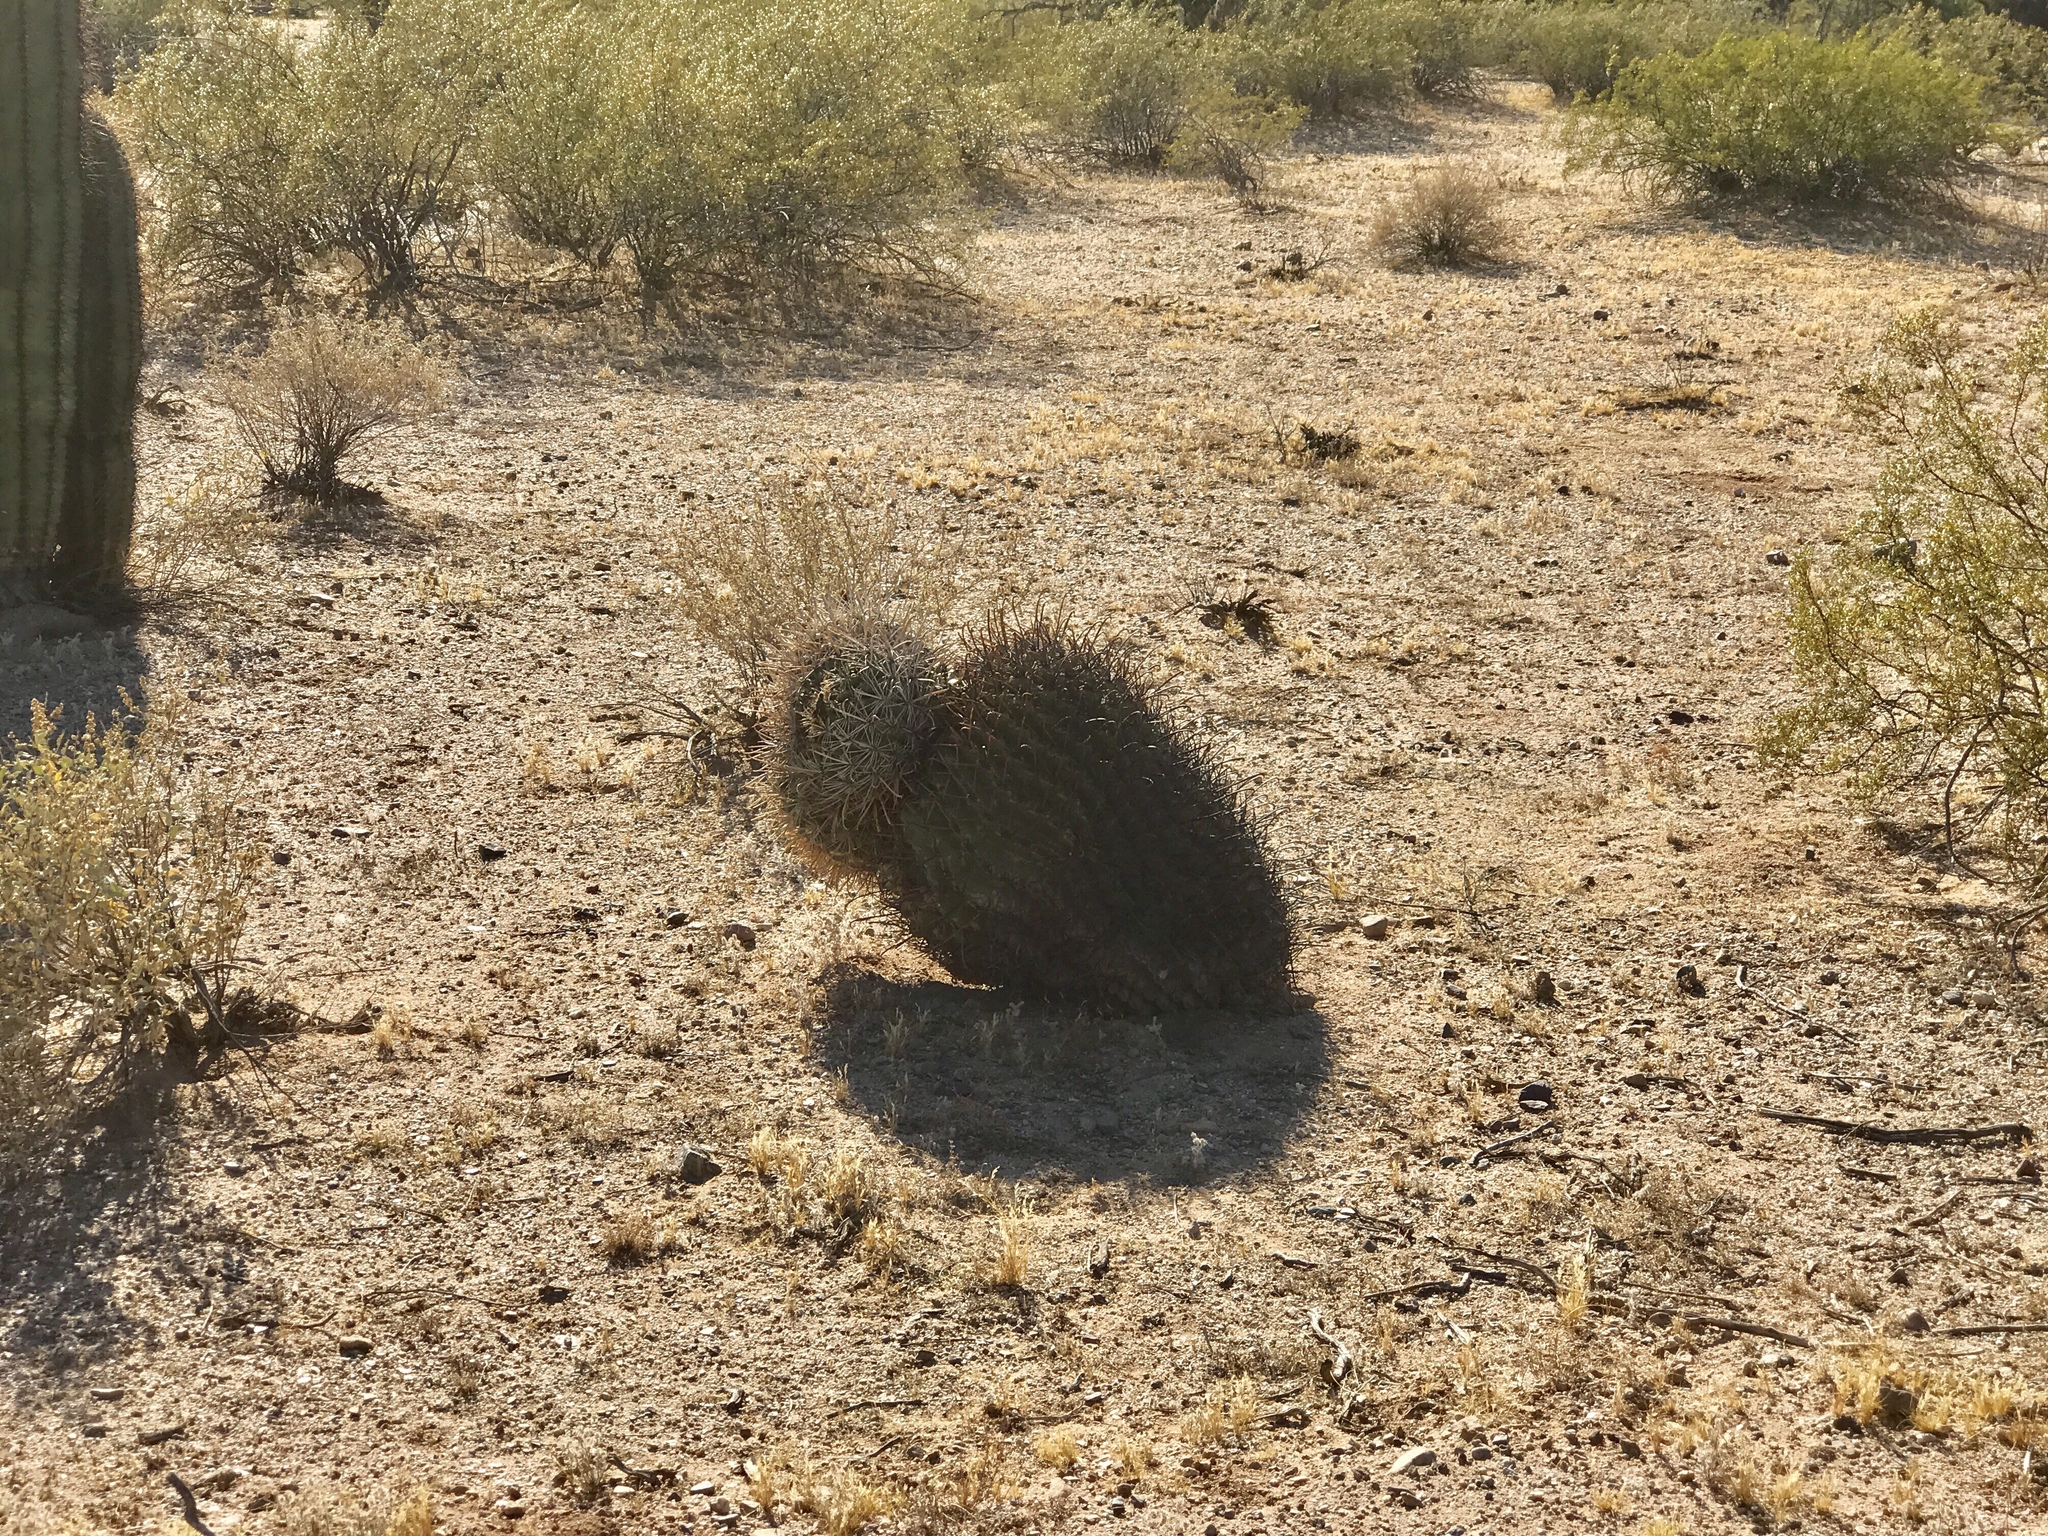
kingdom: Plantae
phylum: Tracheophyta
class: Magnoliopsida
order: Caryophyllales
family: Cactaceae
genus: Ferocactus
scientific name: Ferocactus wislizeni
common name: Candy barrel cactus
